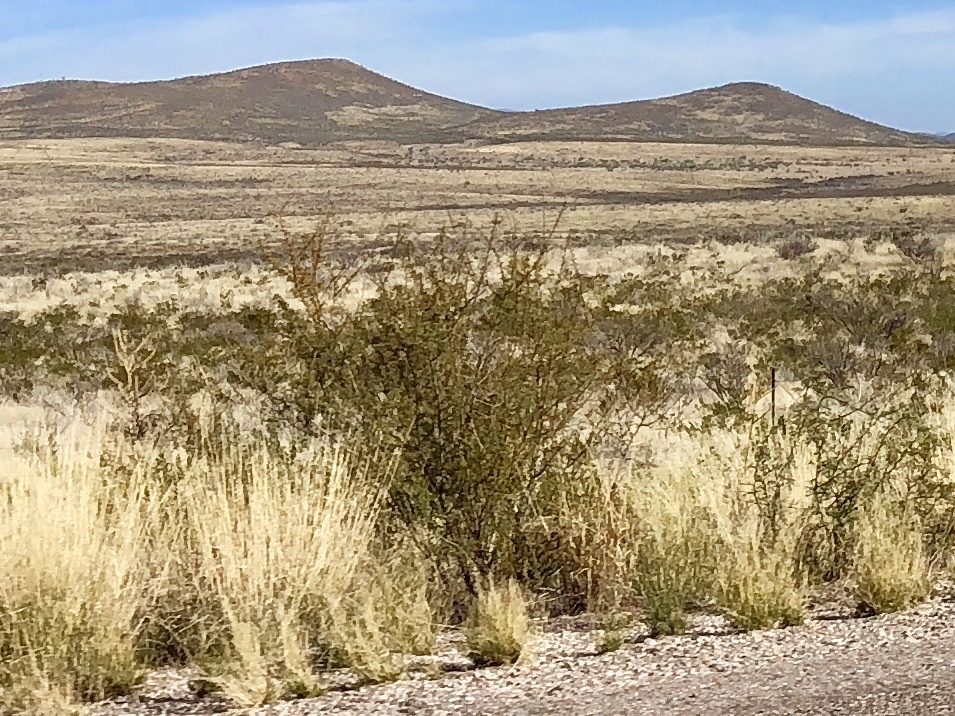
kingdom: Plantae
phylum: Tracheophyta
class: Magnoliopsida
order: Zygophyllales
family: Zygophyllaceae
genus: Larrea
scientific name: Larrea tridentata
